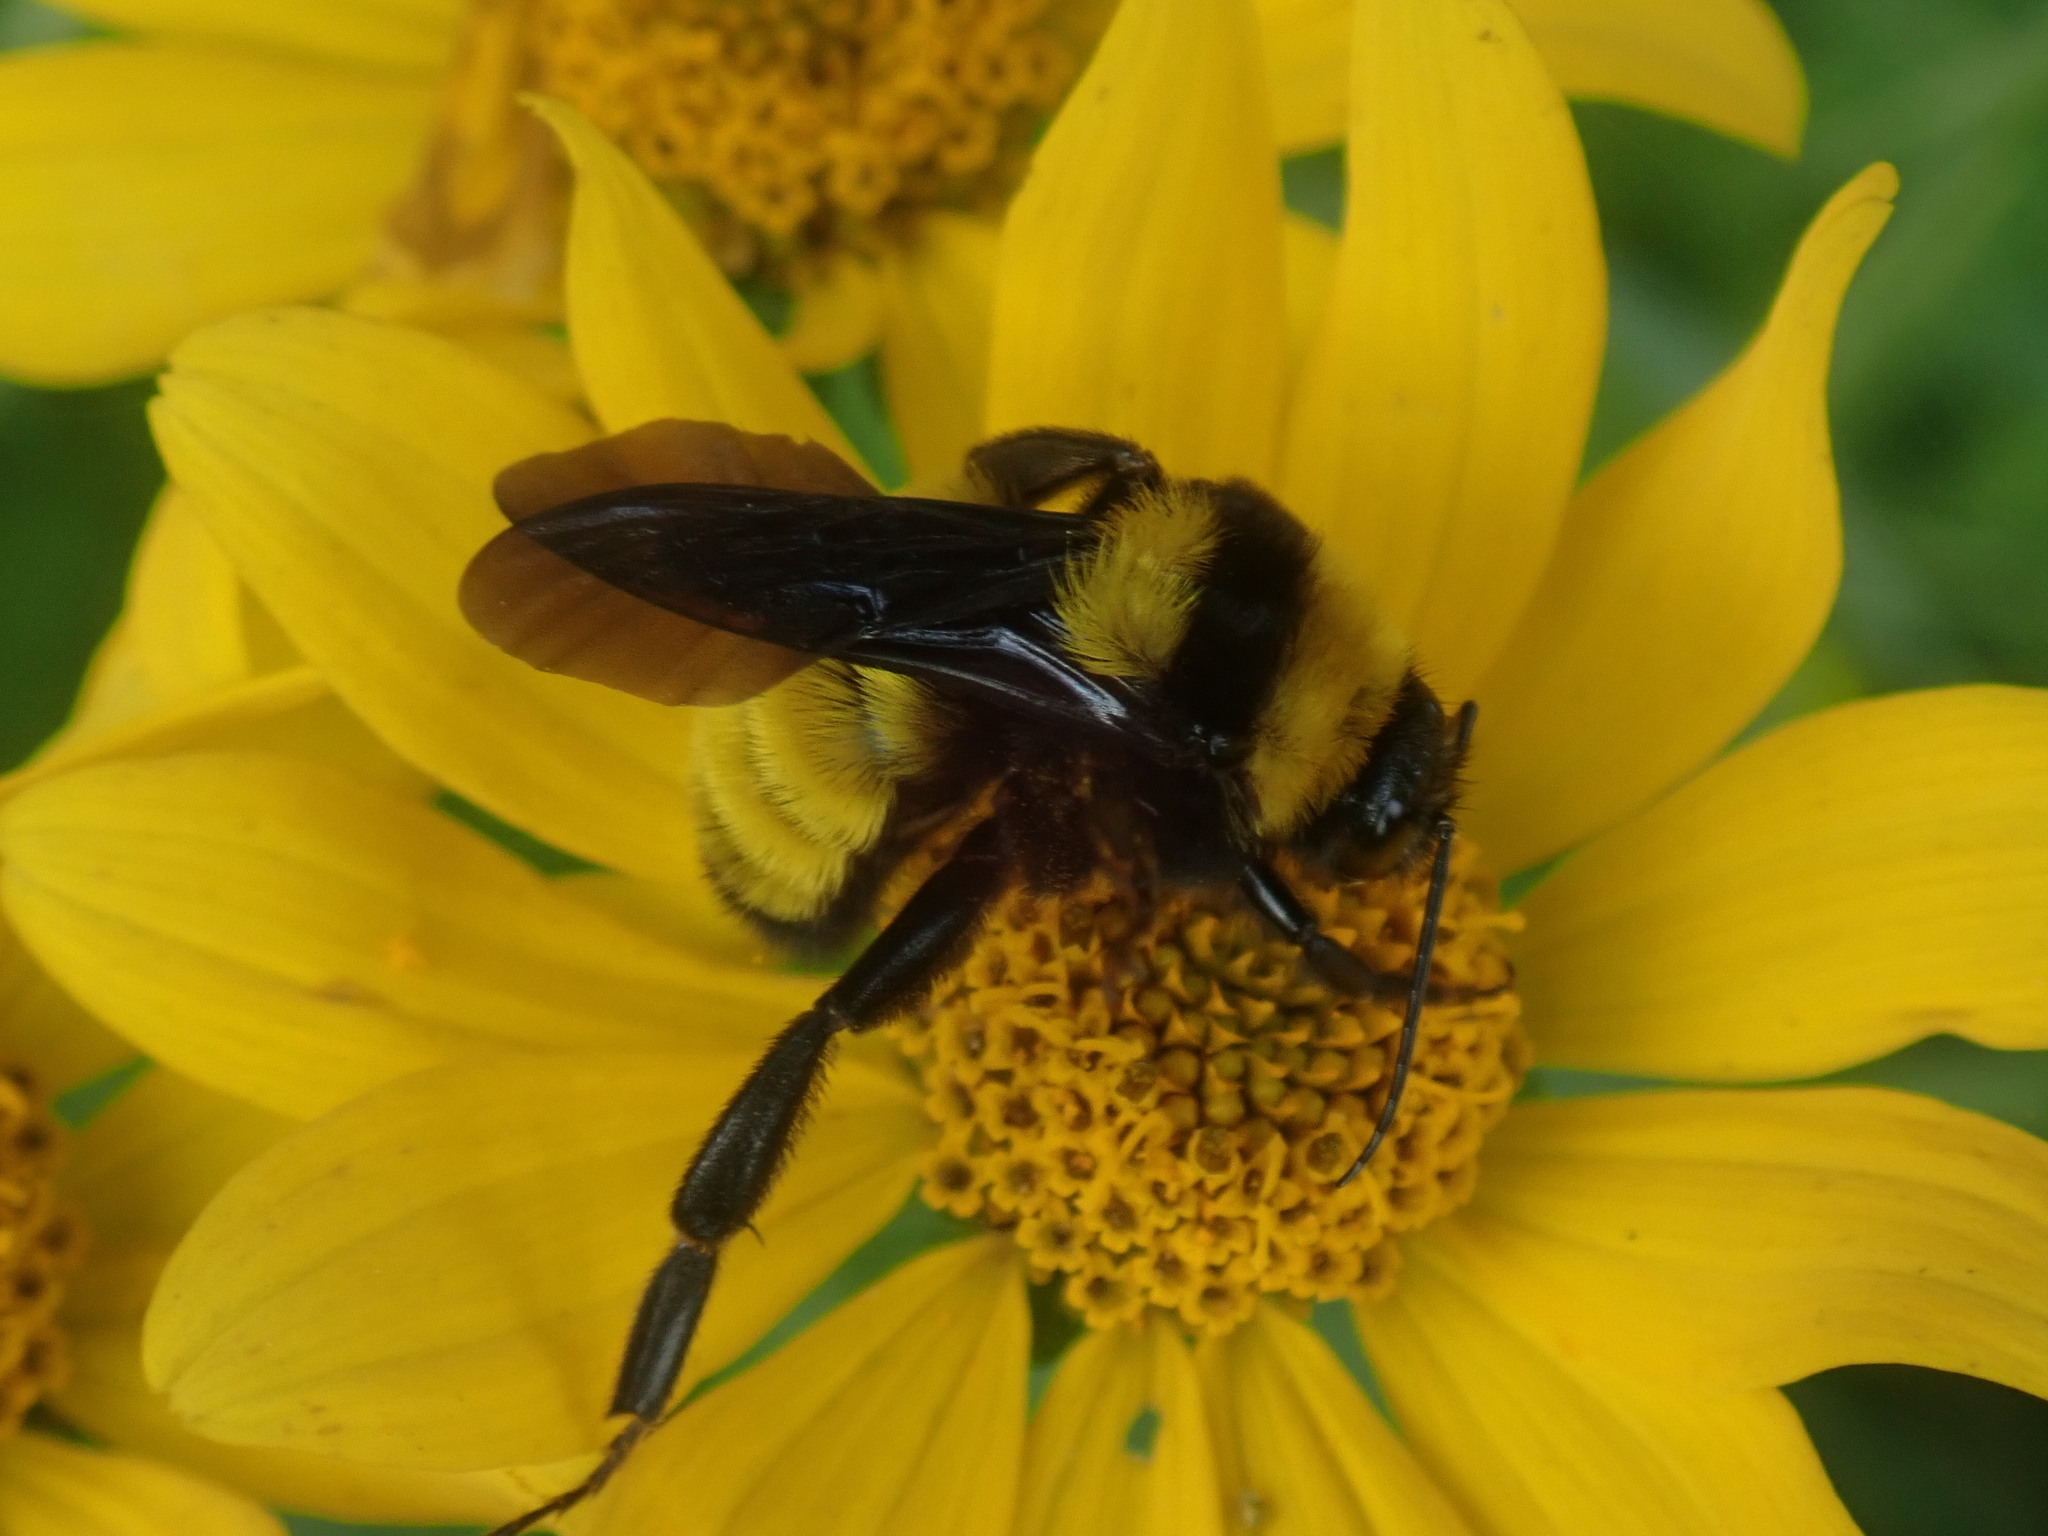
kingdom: Animalia
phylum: Arthropoda
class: Insecta
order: Hymenoptera
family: Apidae
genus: Bombus
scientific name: Bombus sonorus
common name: Sonoran bumble bee
